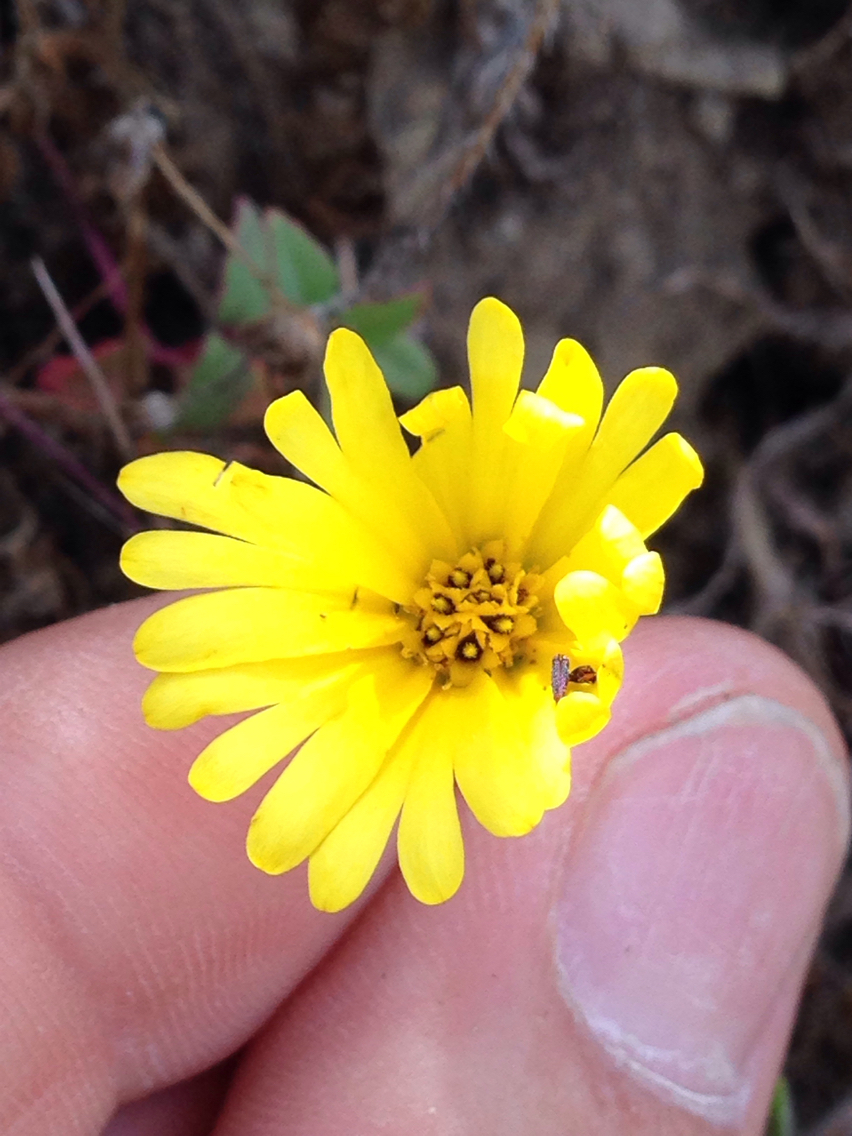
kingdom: Plantae
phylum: Tracheophyta
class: Magnoliopsida
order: Asterales
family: Asteraceae
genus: Madia
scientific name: Madia elegans
